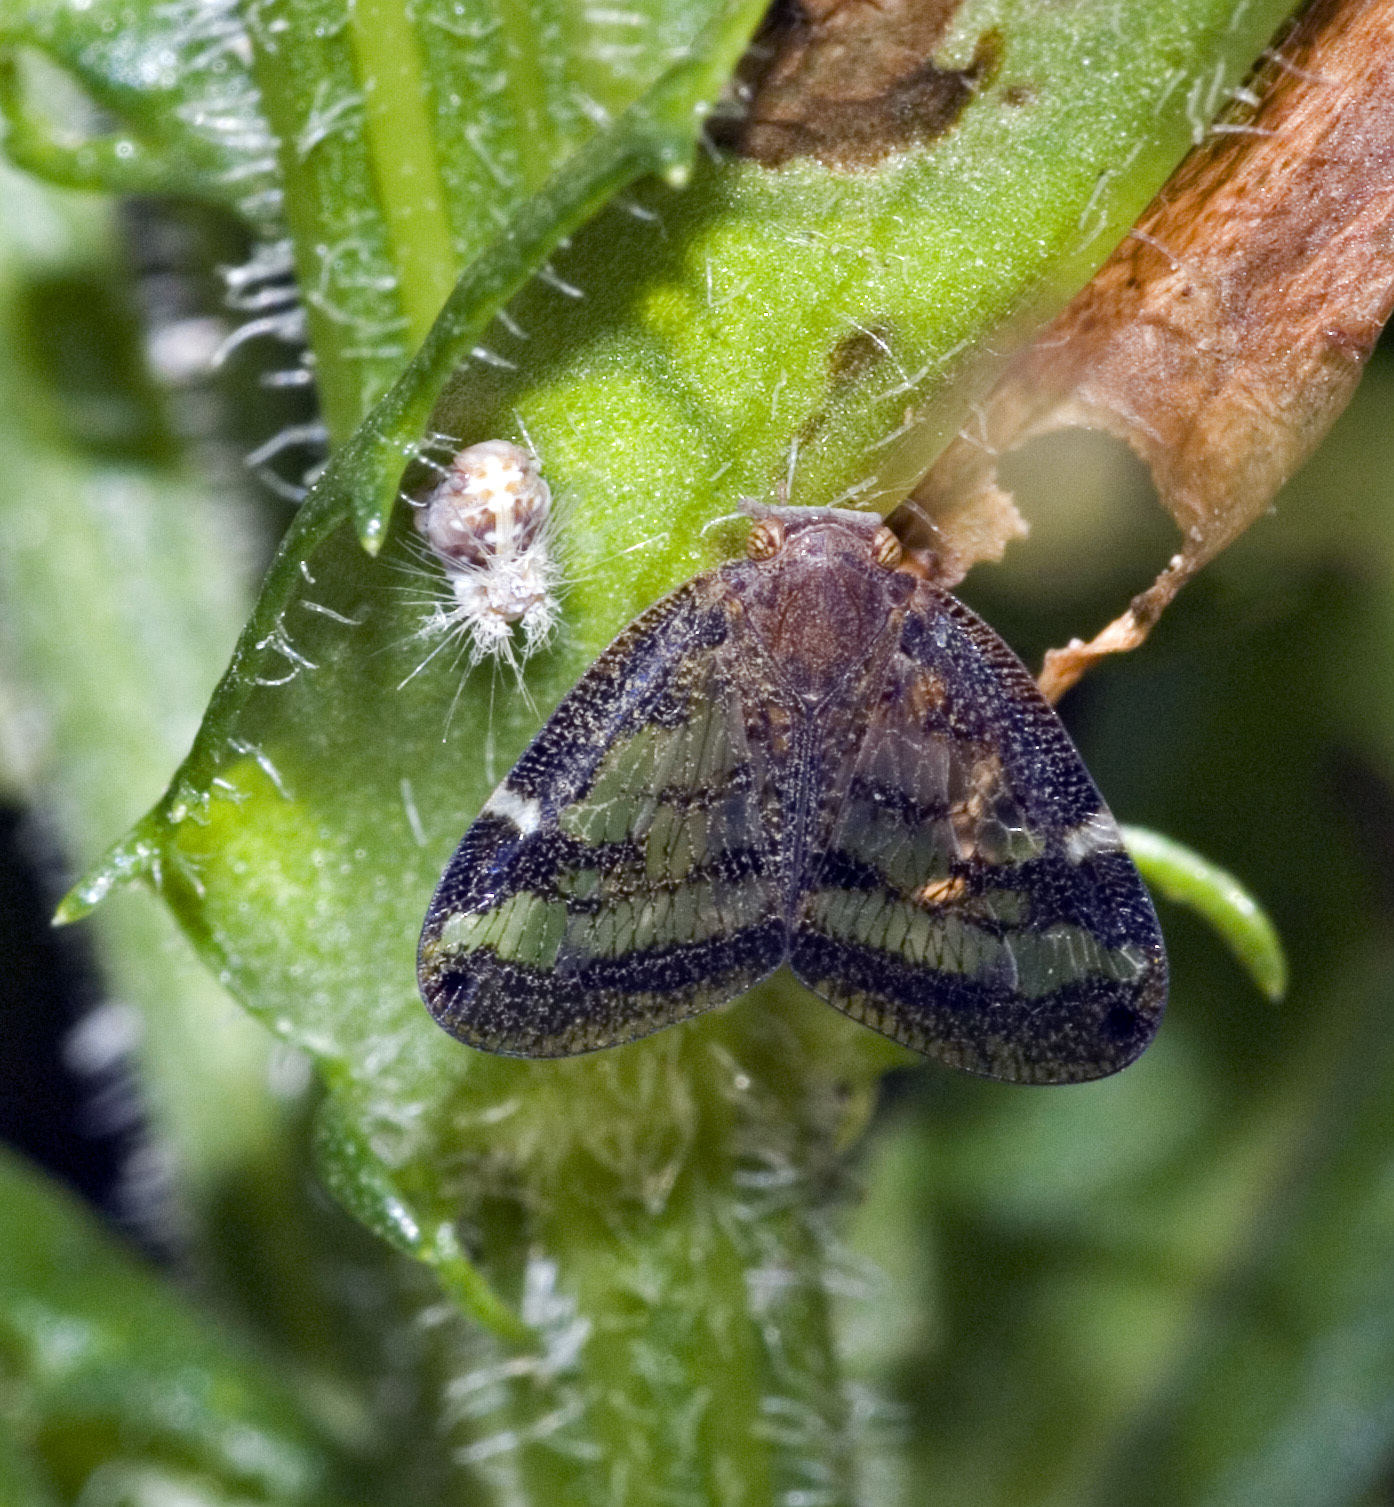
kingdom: Animalia
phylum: Arthropoda
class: Insecta
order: Hemiptera
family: Ricaniidae
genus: Scolypopa
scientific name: Scolypopa australis
